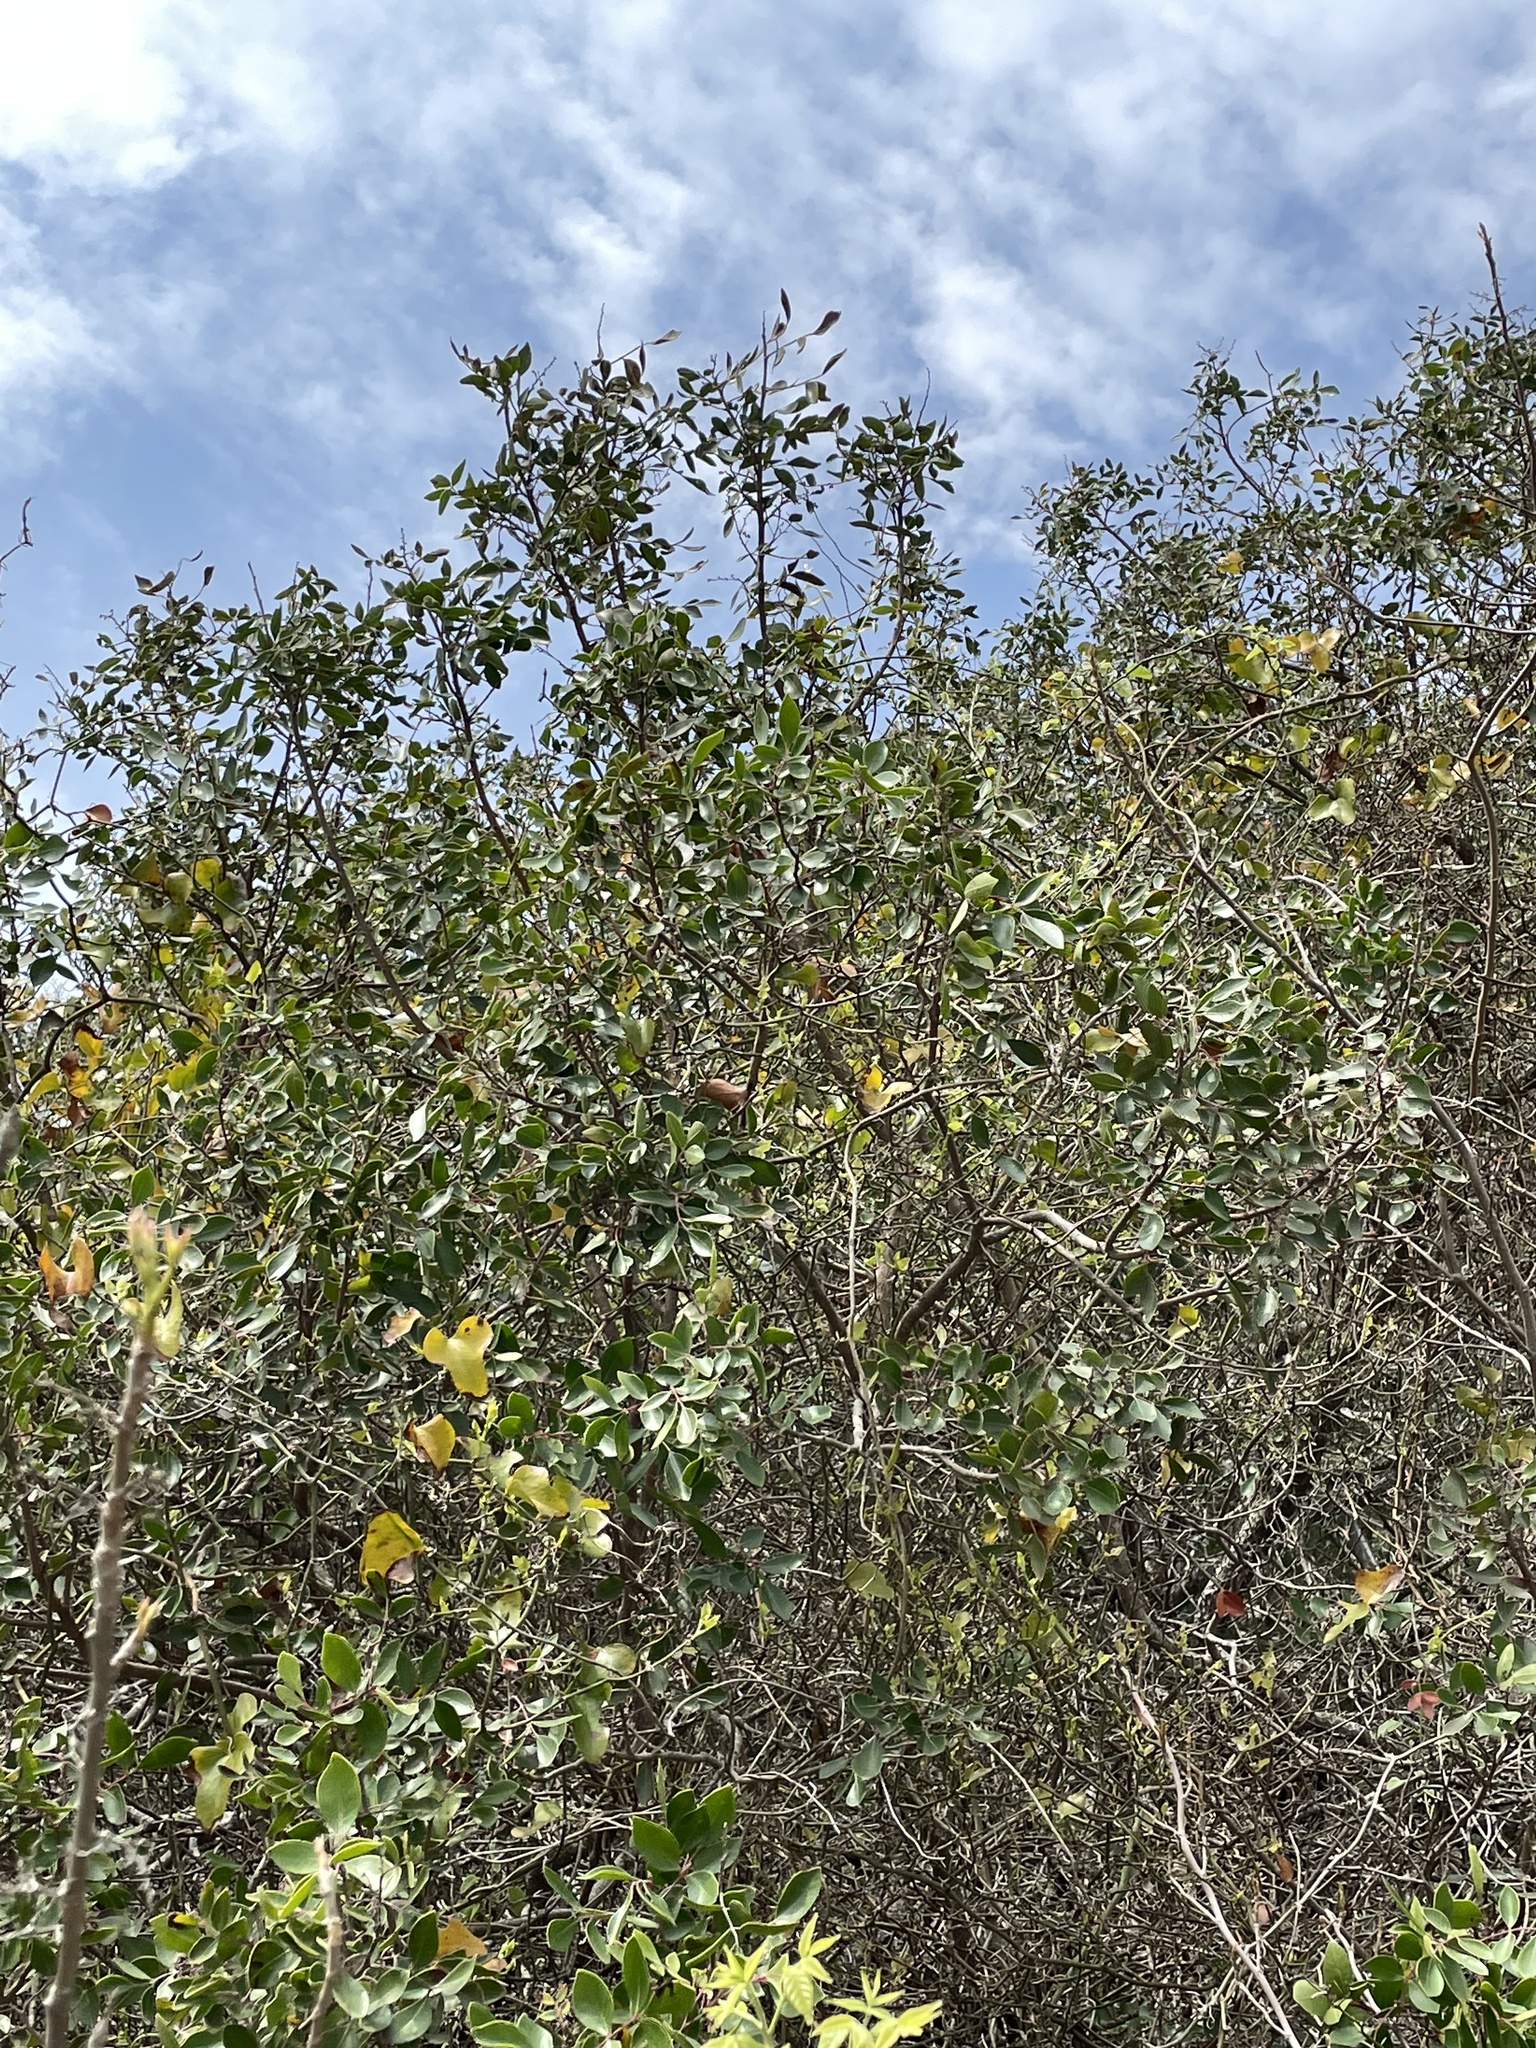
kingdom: Plantae
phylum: Tracheophyta
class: Magnoliopsida
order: Sapindales
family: Anacardiaceae
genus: Rhus
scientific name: Rhus virens
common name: Evergreen sumac
